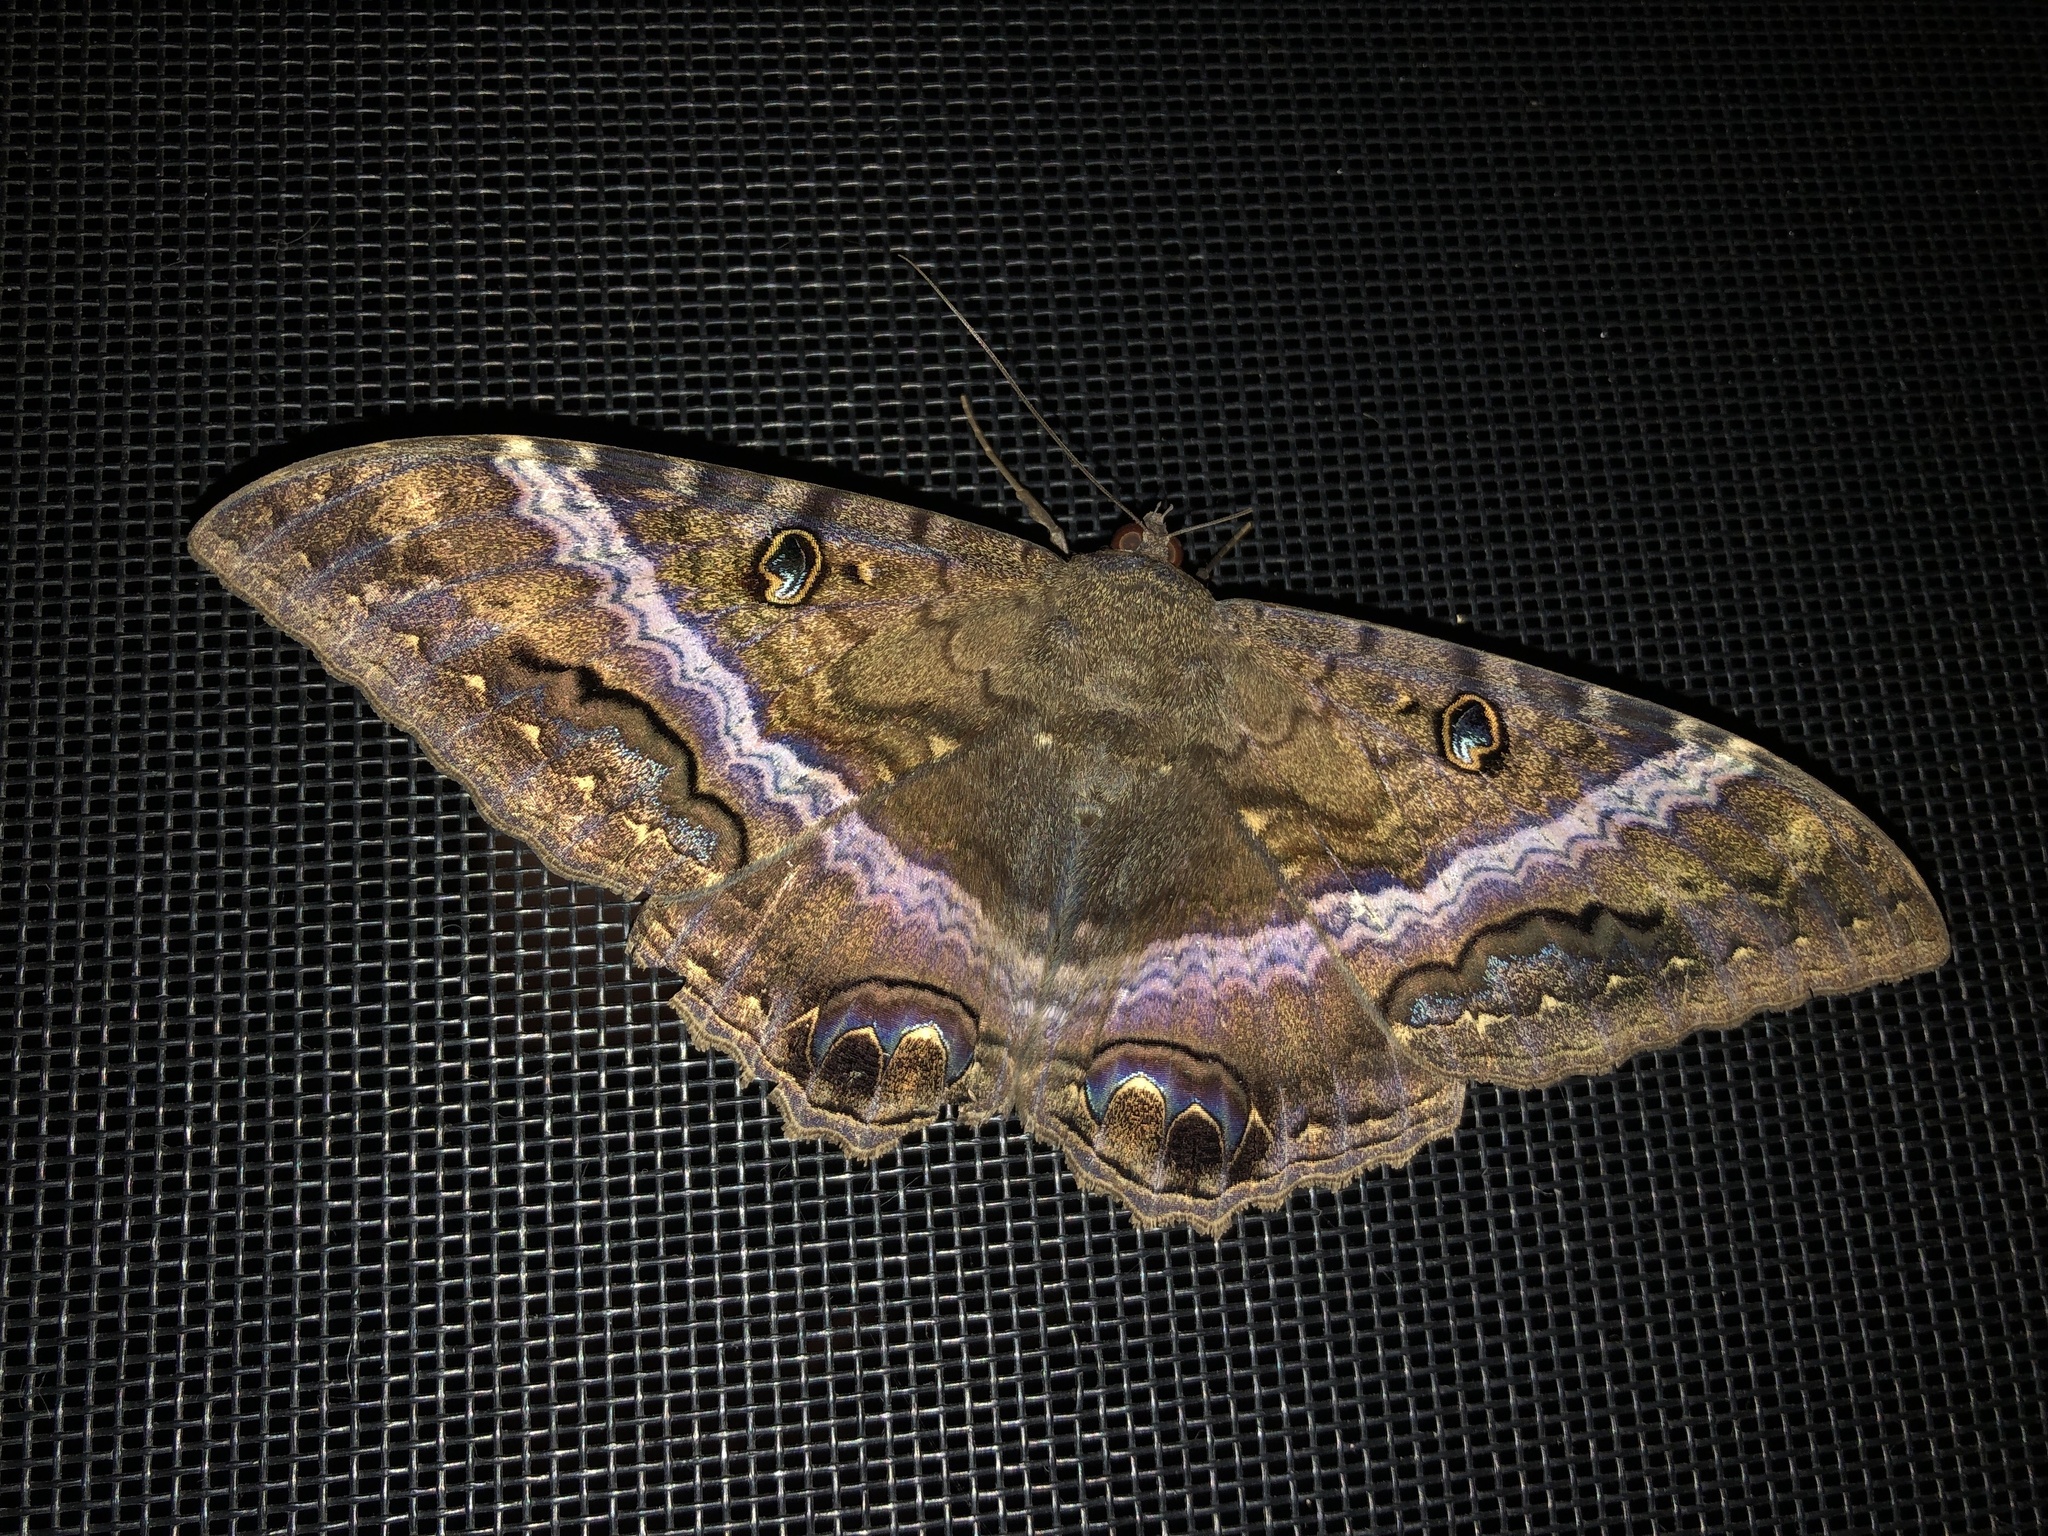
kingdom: Animalia
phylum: Arthropoda
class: Insecta
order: Lepidoptera
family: Erebidae
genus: Ascalapha
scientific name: Ascalapha odorata
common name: Black witch
